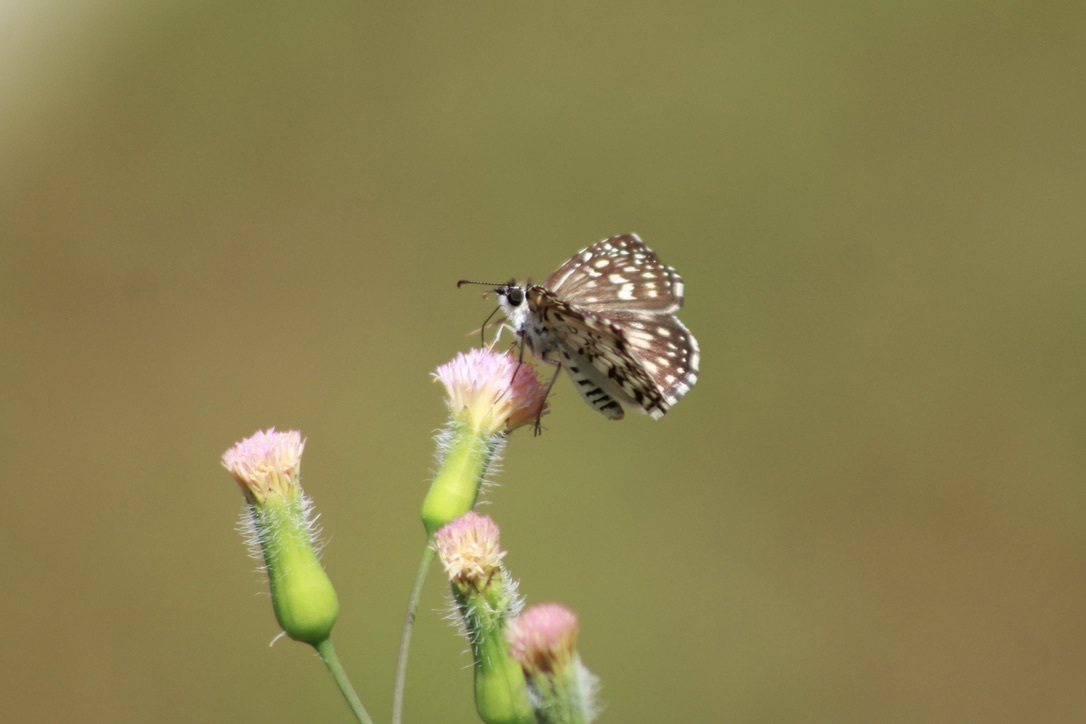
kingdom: Animalia
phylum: Arthropoda
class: Insecta
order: Lepidoptera
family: Hesperiidae
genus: Pyrgus
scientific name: Pyrgus oileus
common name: Tropical checkered-skipper
